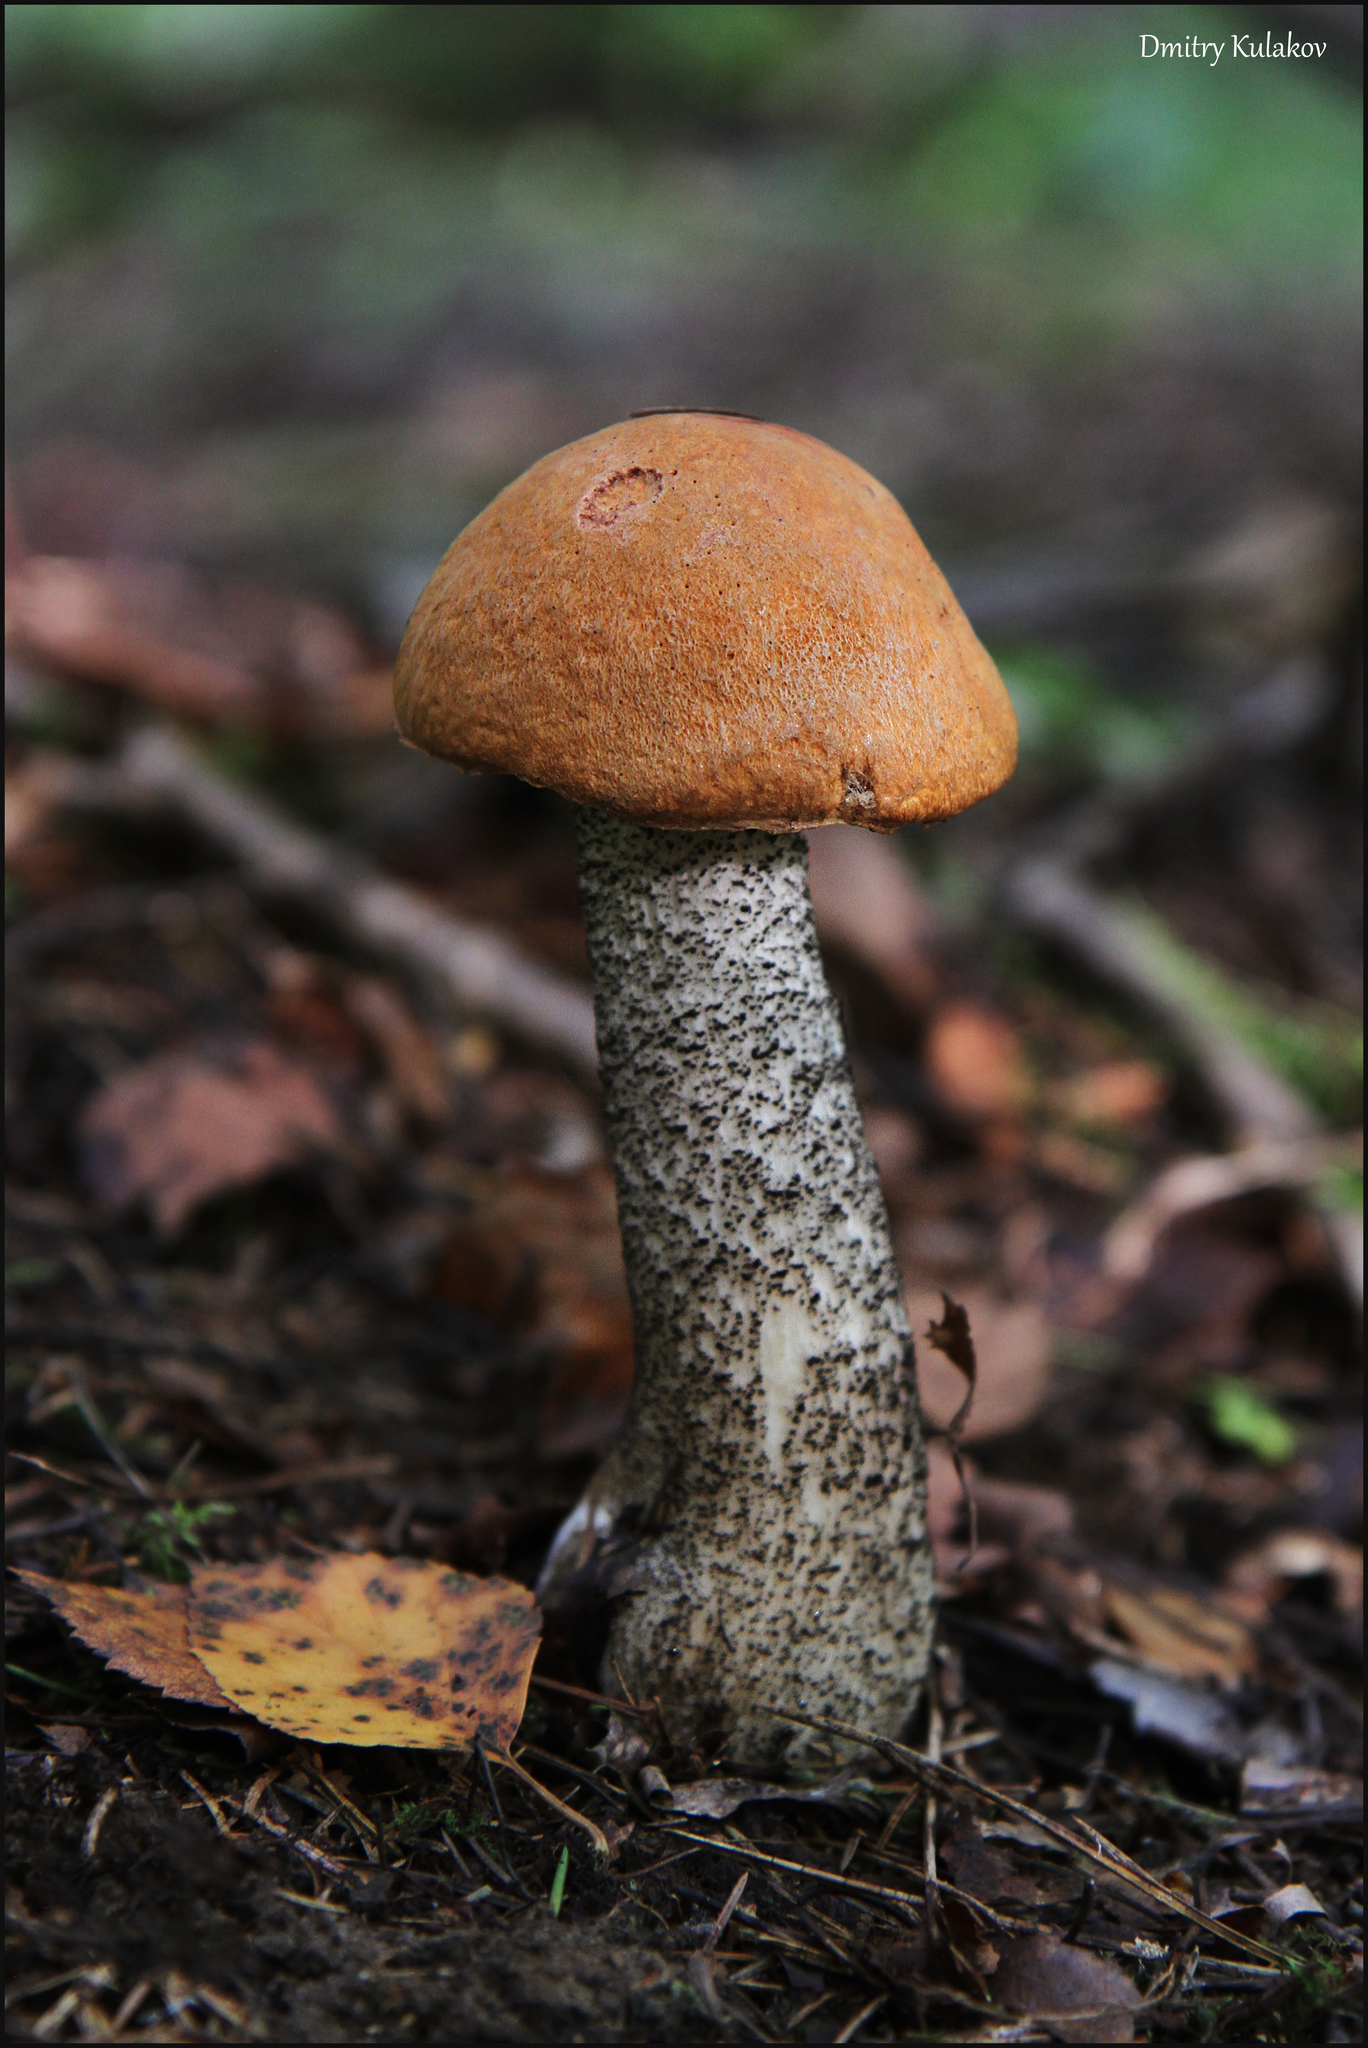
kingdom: Fungi
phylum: Basidiomycota
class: Agaricomycetes
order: Boletales
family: Boletaceae
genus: Leccinum
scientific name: Leccinum versipelle
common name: Orange birch bolete
